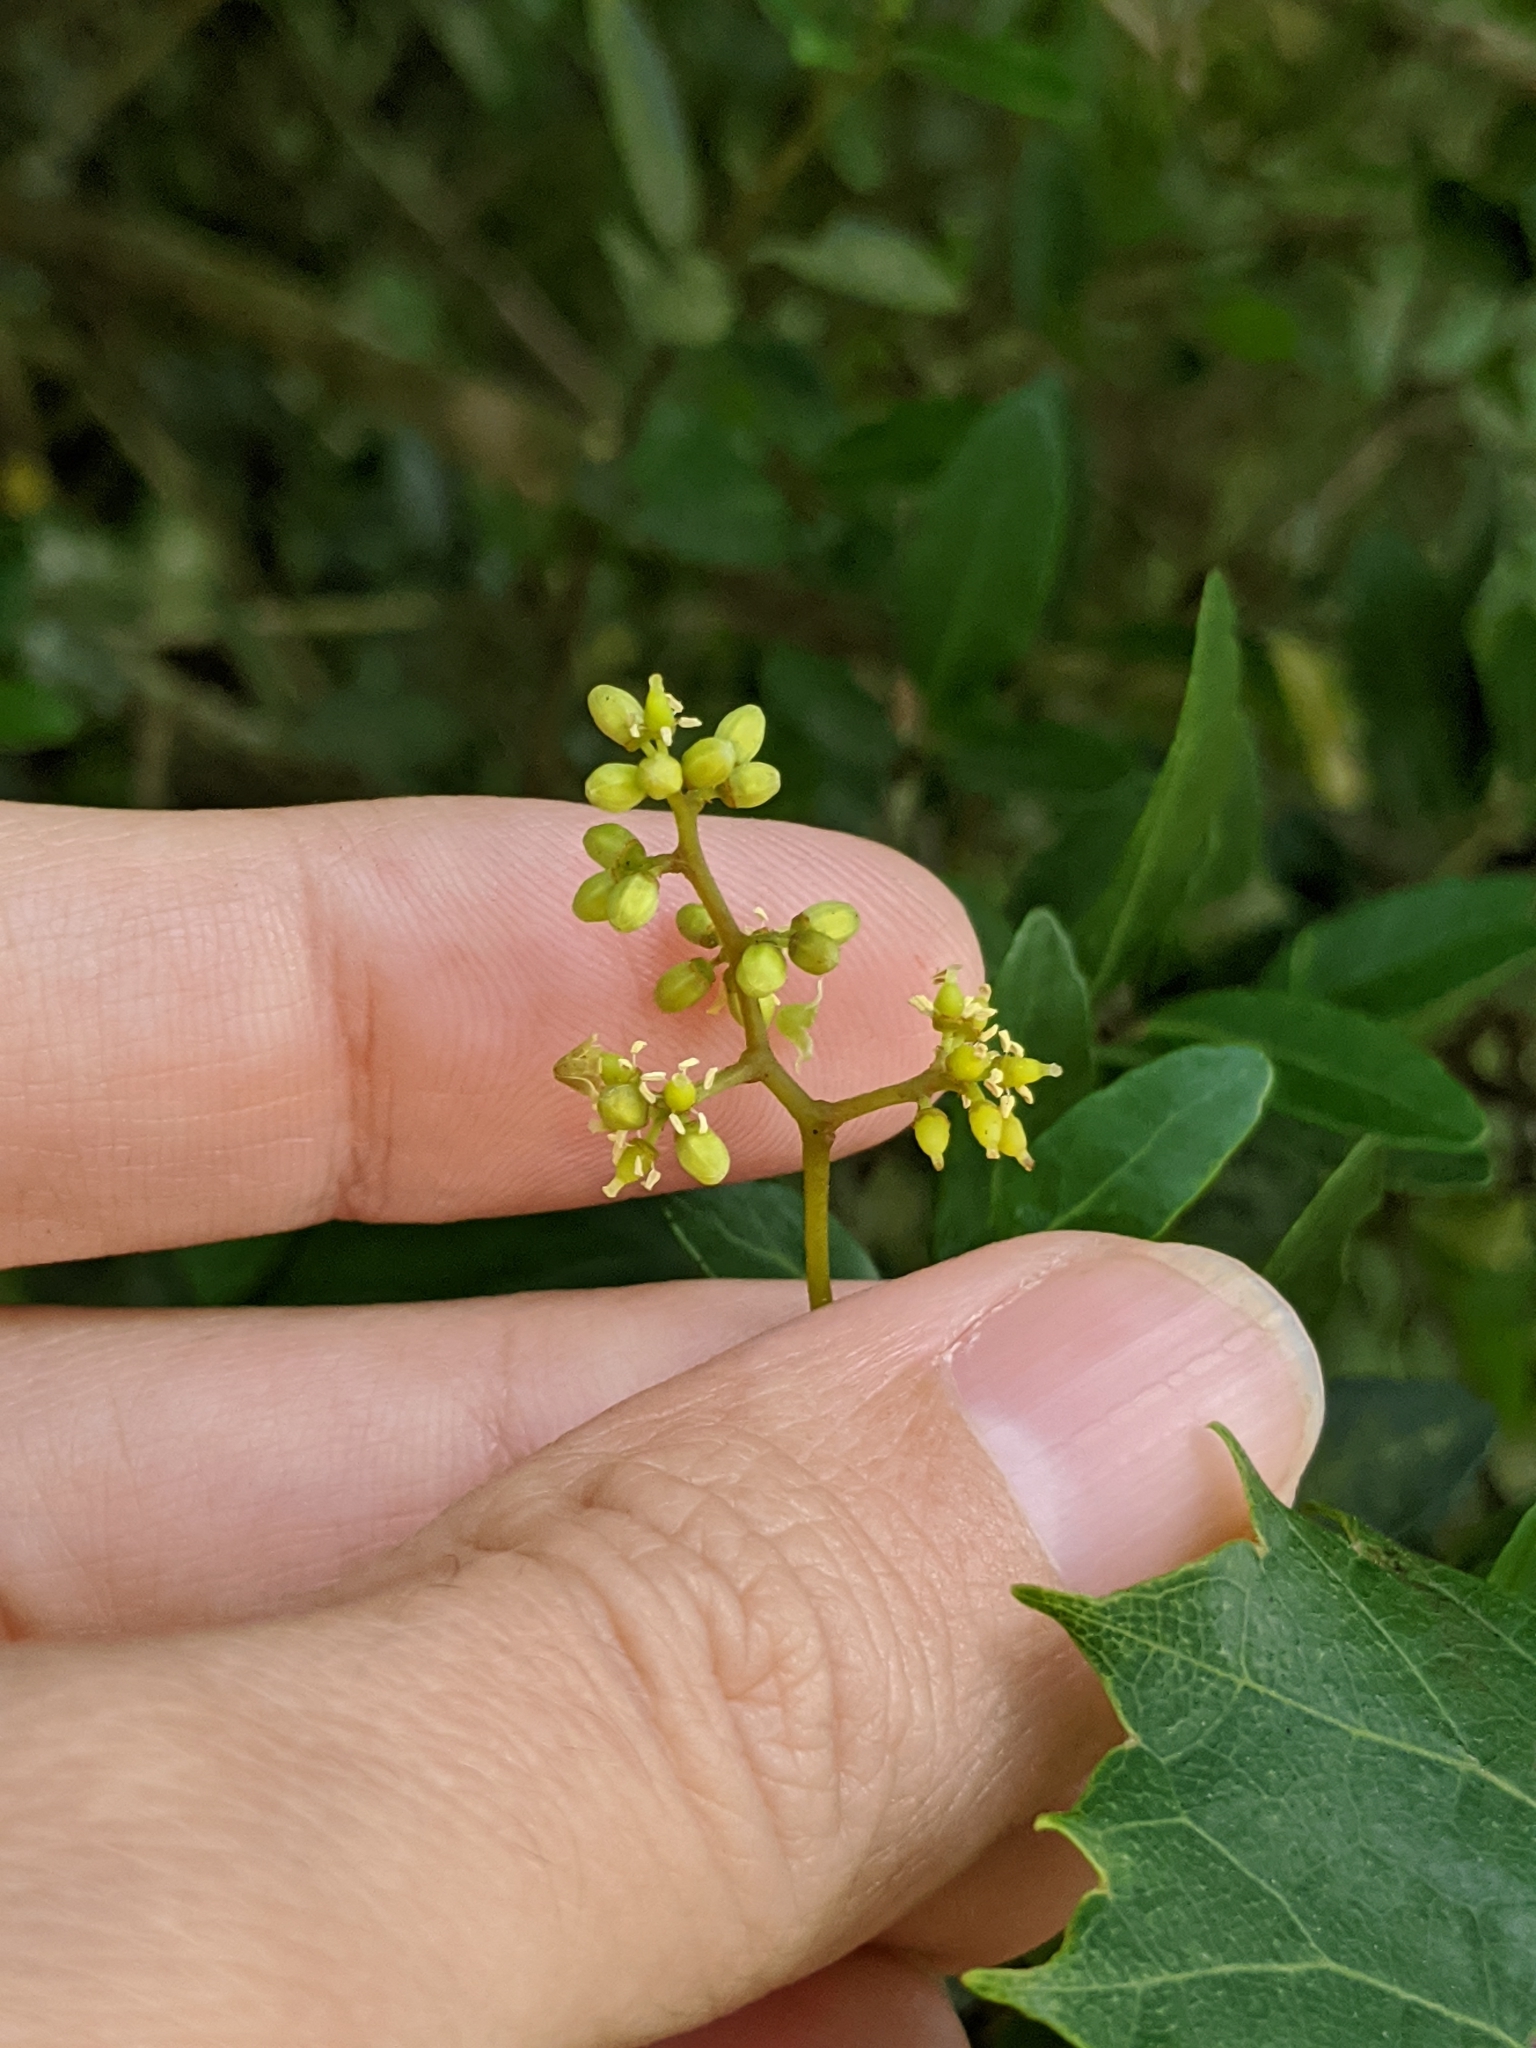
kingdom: Plantae
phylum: Tracheophyta
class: Magnoliopsida
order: Lamiales
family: Oleaceae
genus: Ligustrum
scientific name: Ligustrum sinense
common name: Chinese privet
